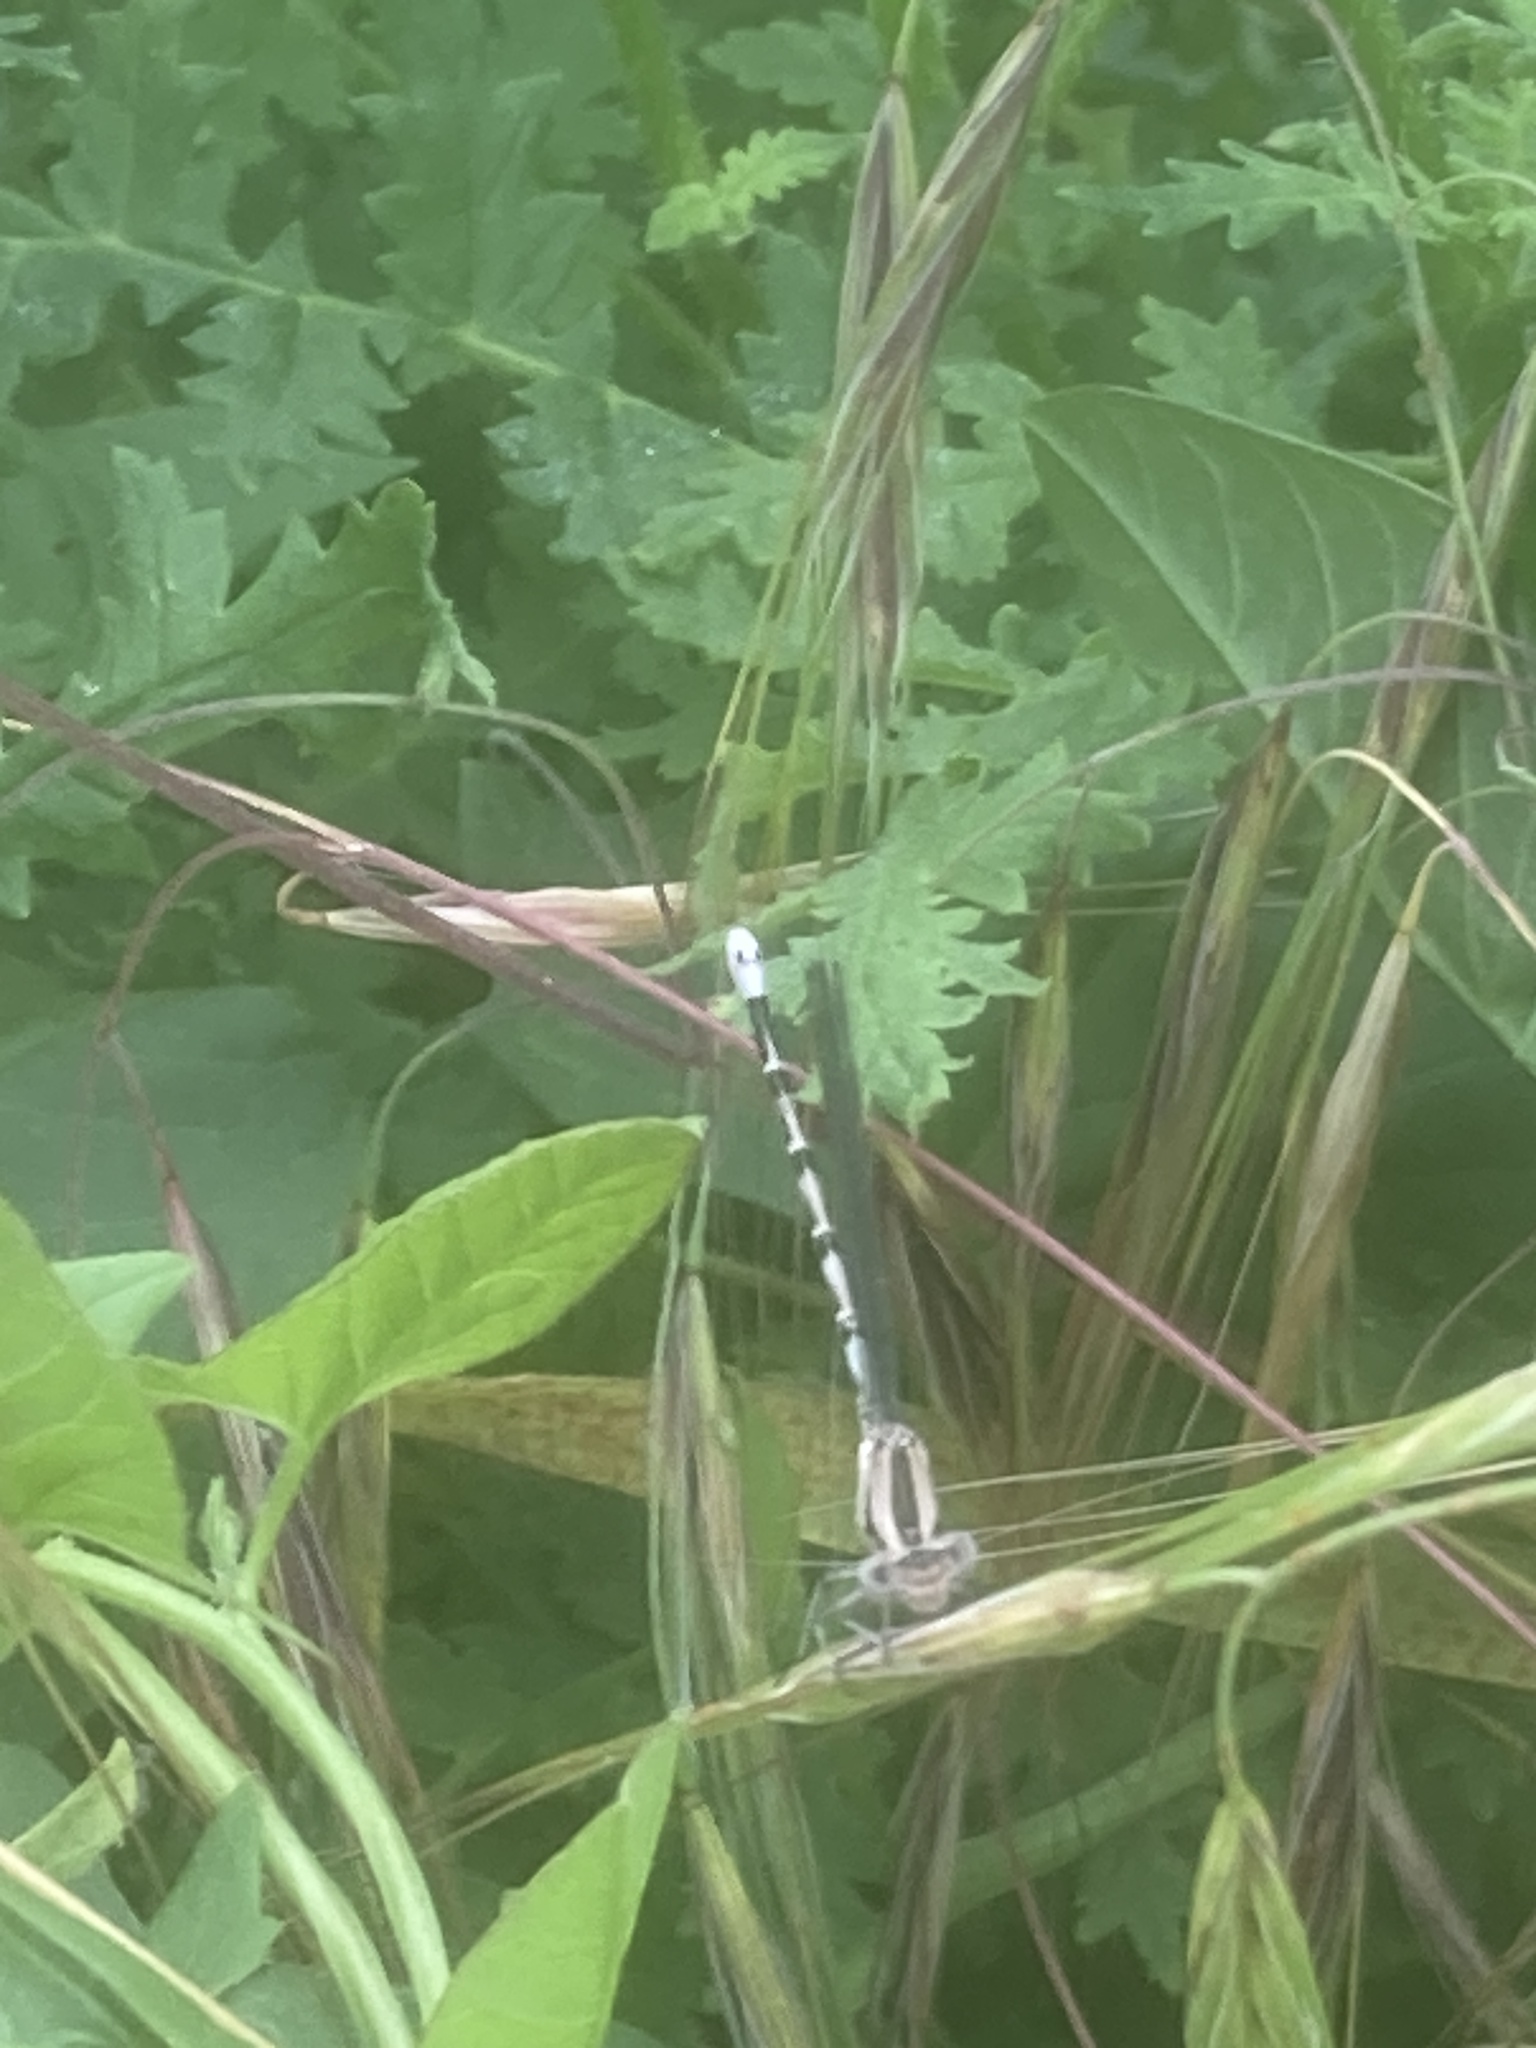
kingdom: Animalia
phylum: Arthropoda
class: Insecta
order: Odonata
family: Coenagrionidae
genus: Argia
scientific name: Argia vivida
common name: Vivid dancer
